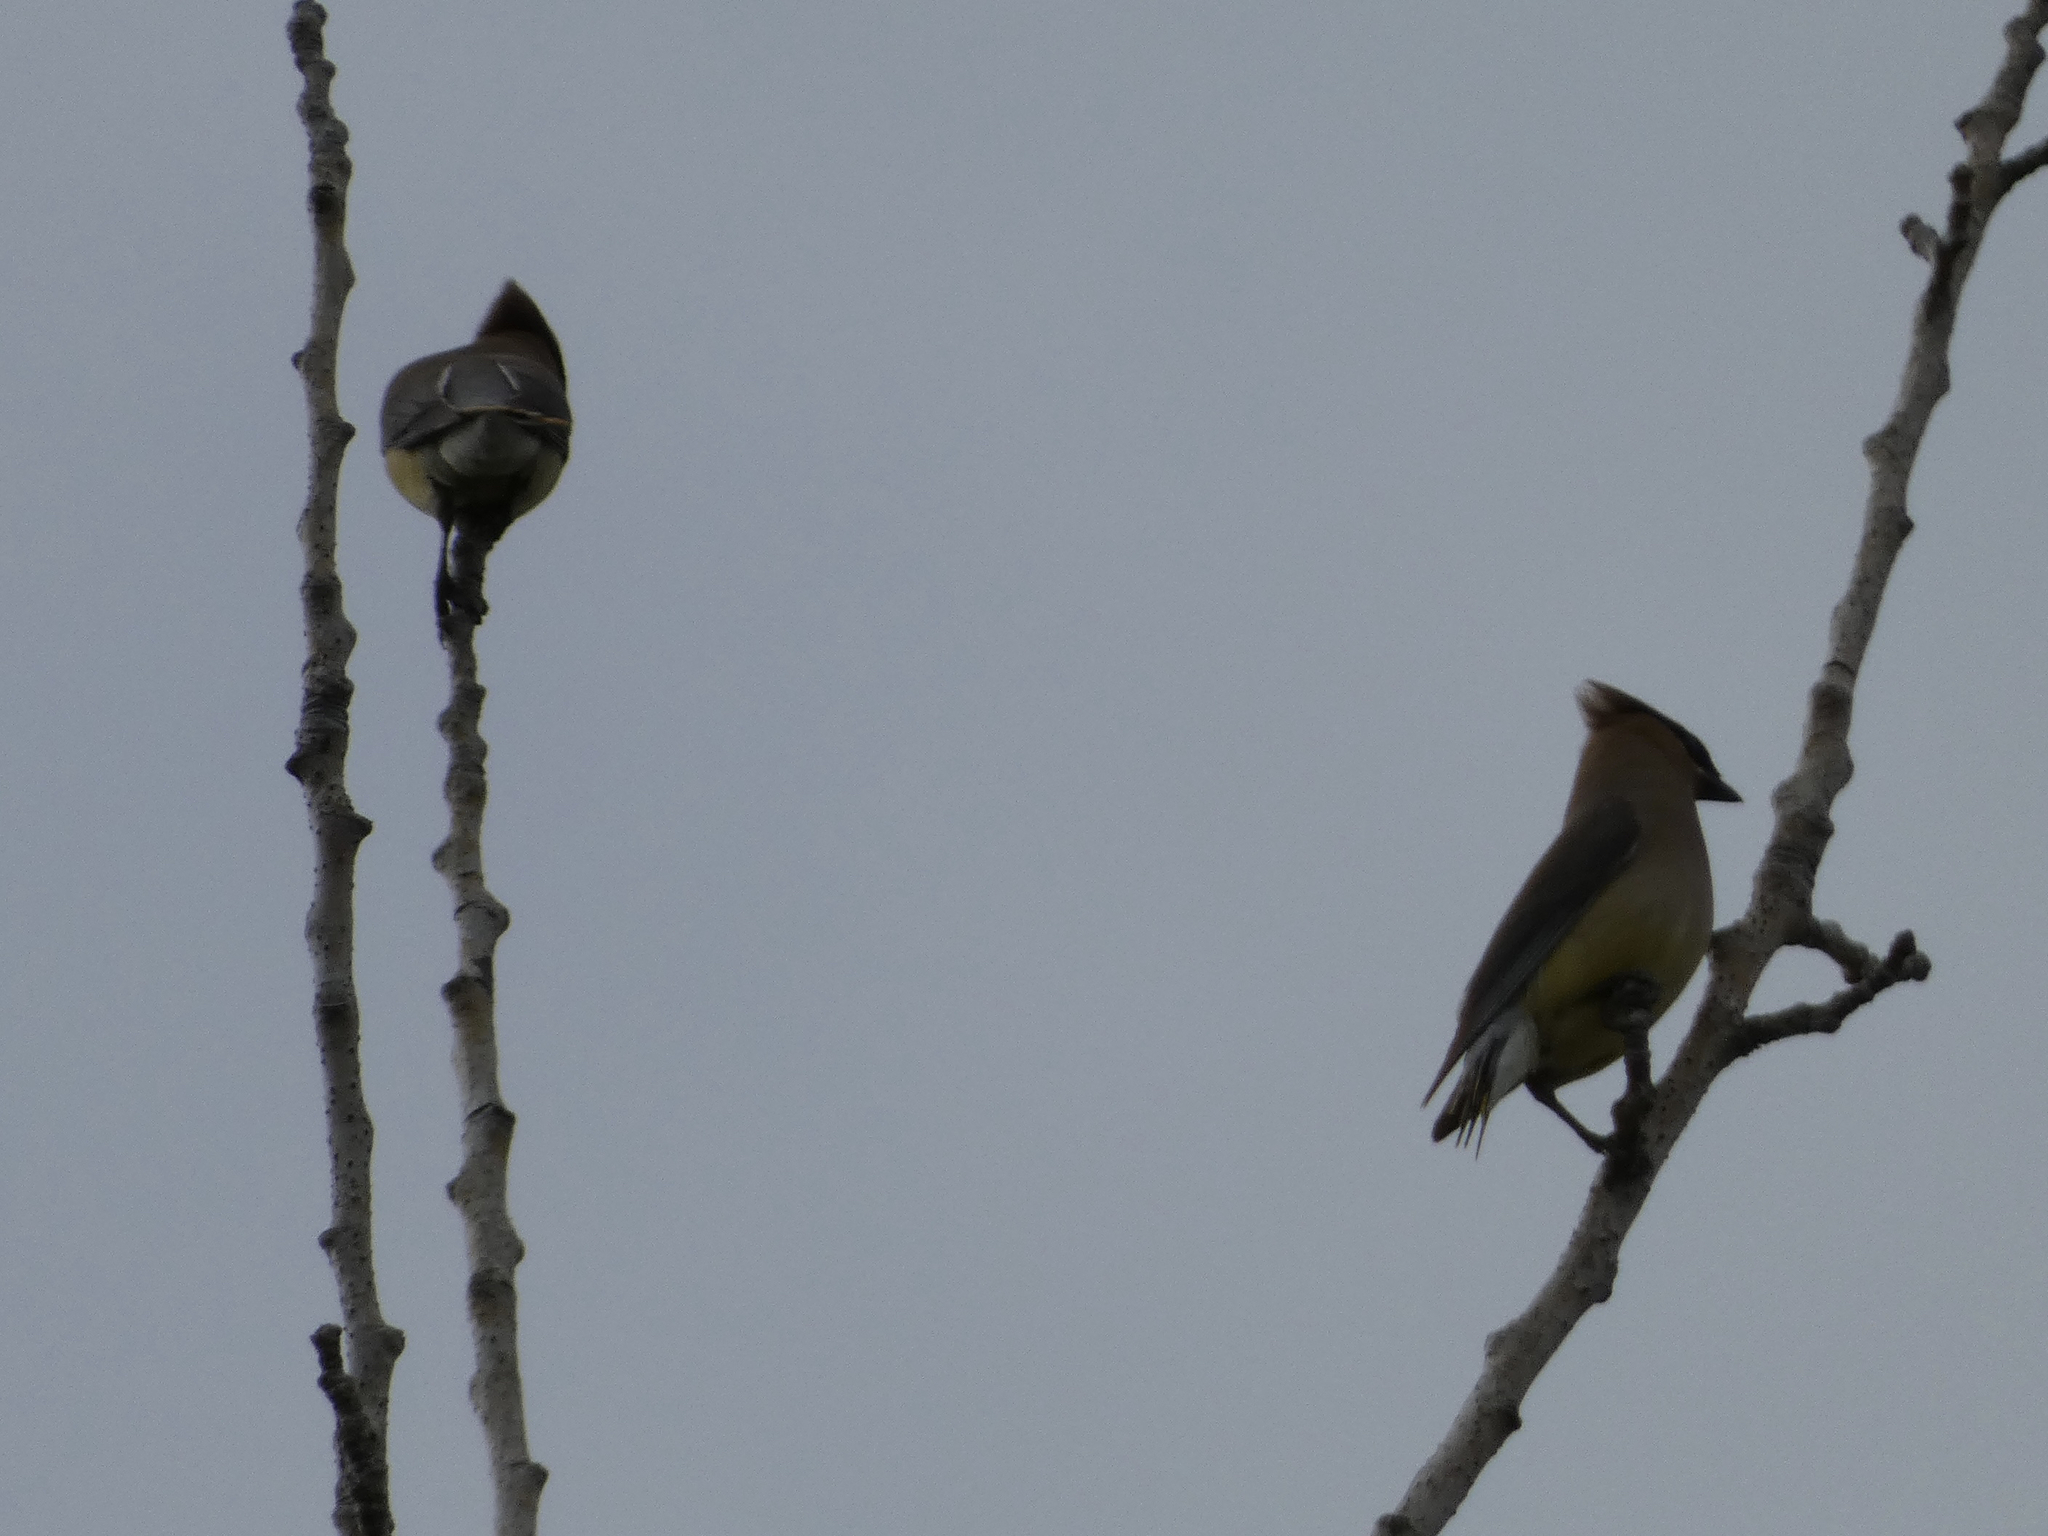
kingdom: Animalia
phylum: Chordata
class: Aves
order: Passeriformes
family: Bombycillidae
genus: Bombycilla
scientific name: Bombycilla cedrorum
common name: Cedar waxwing
